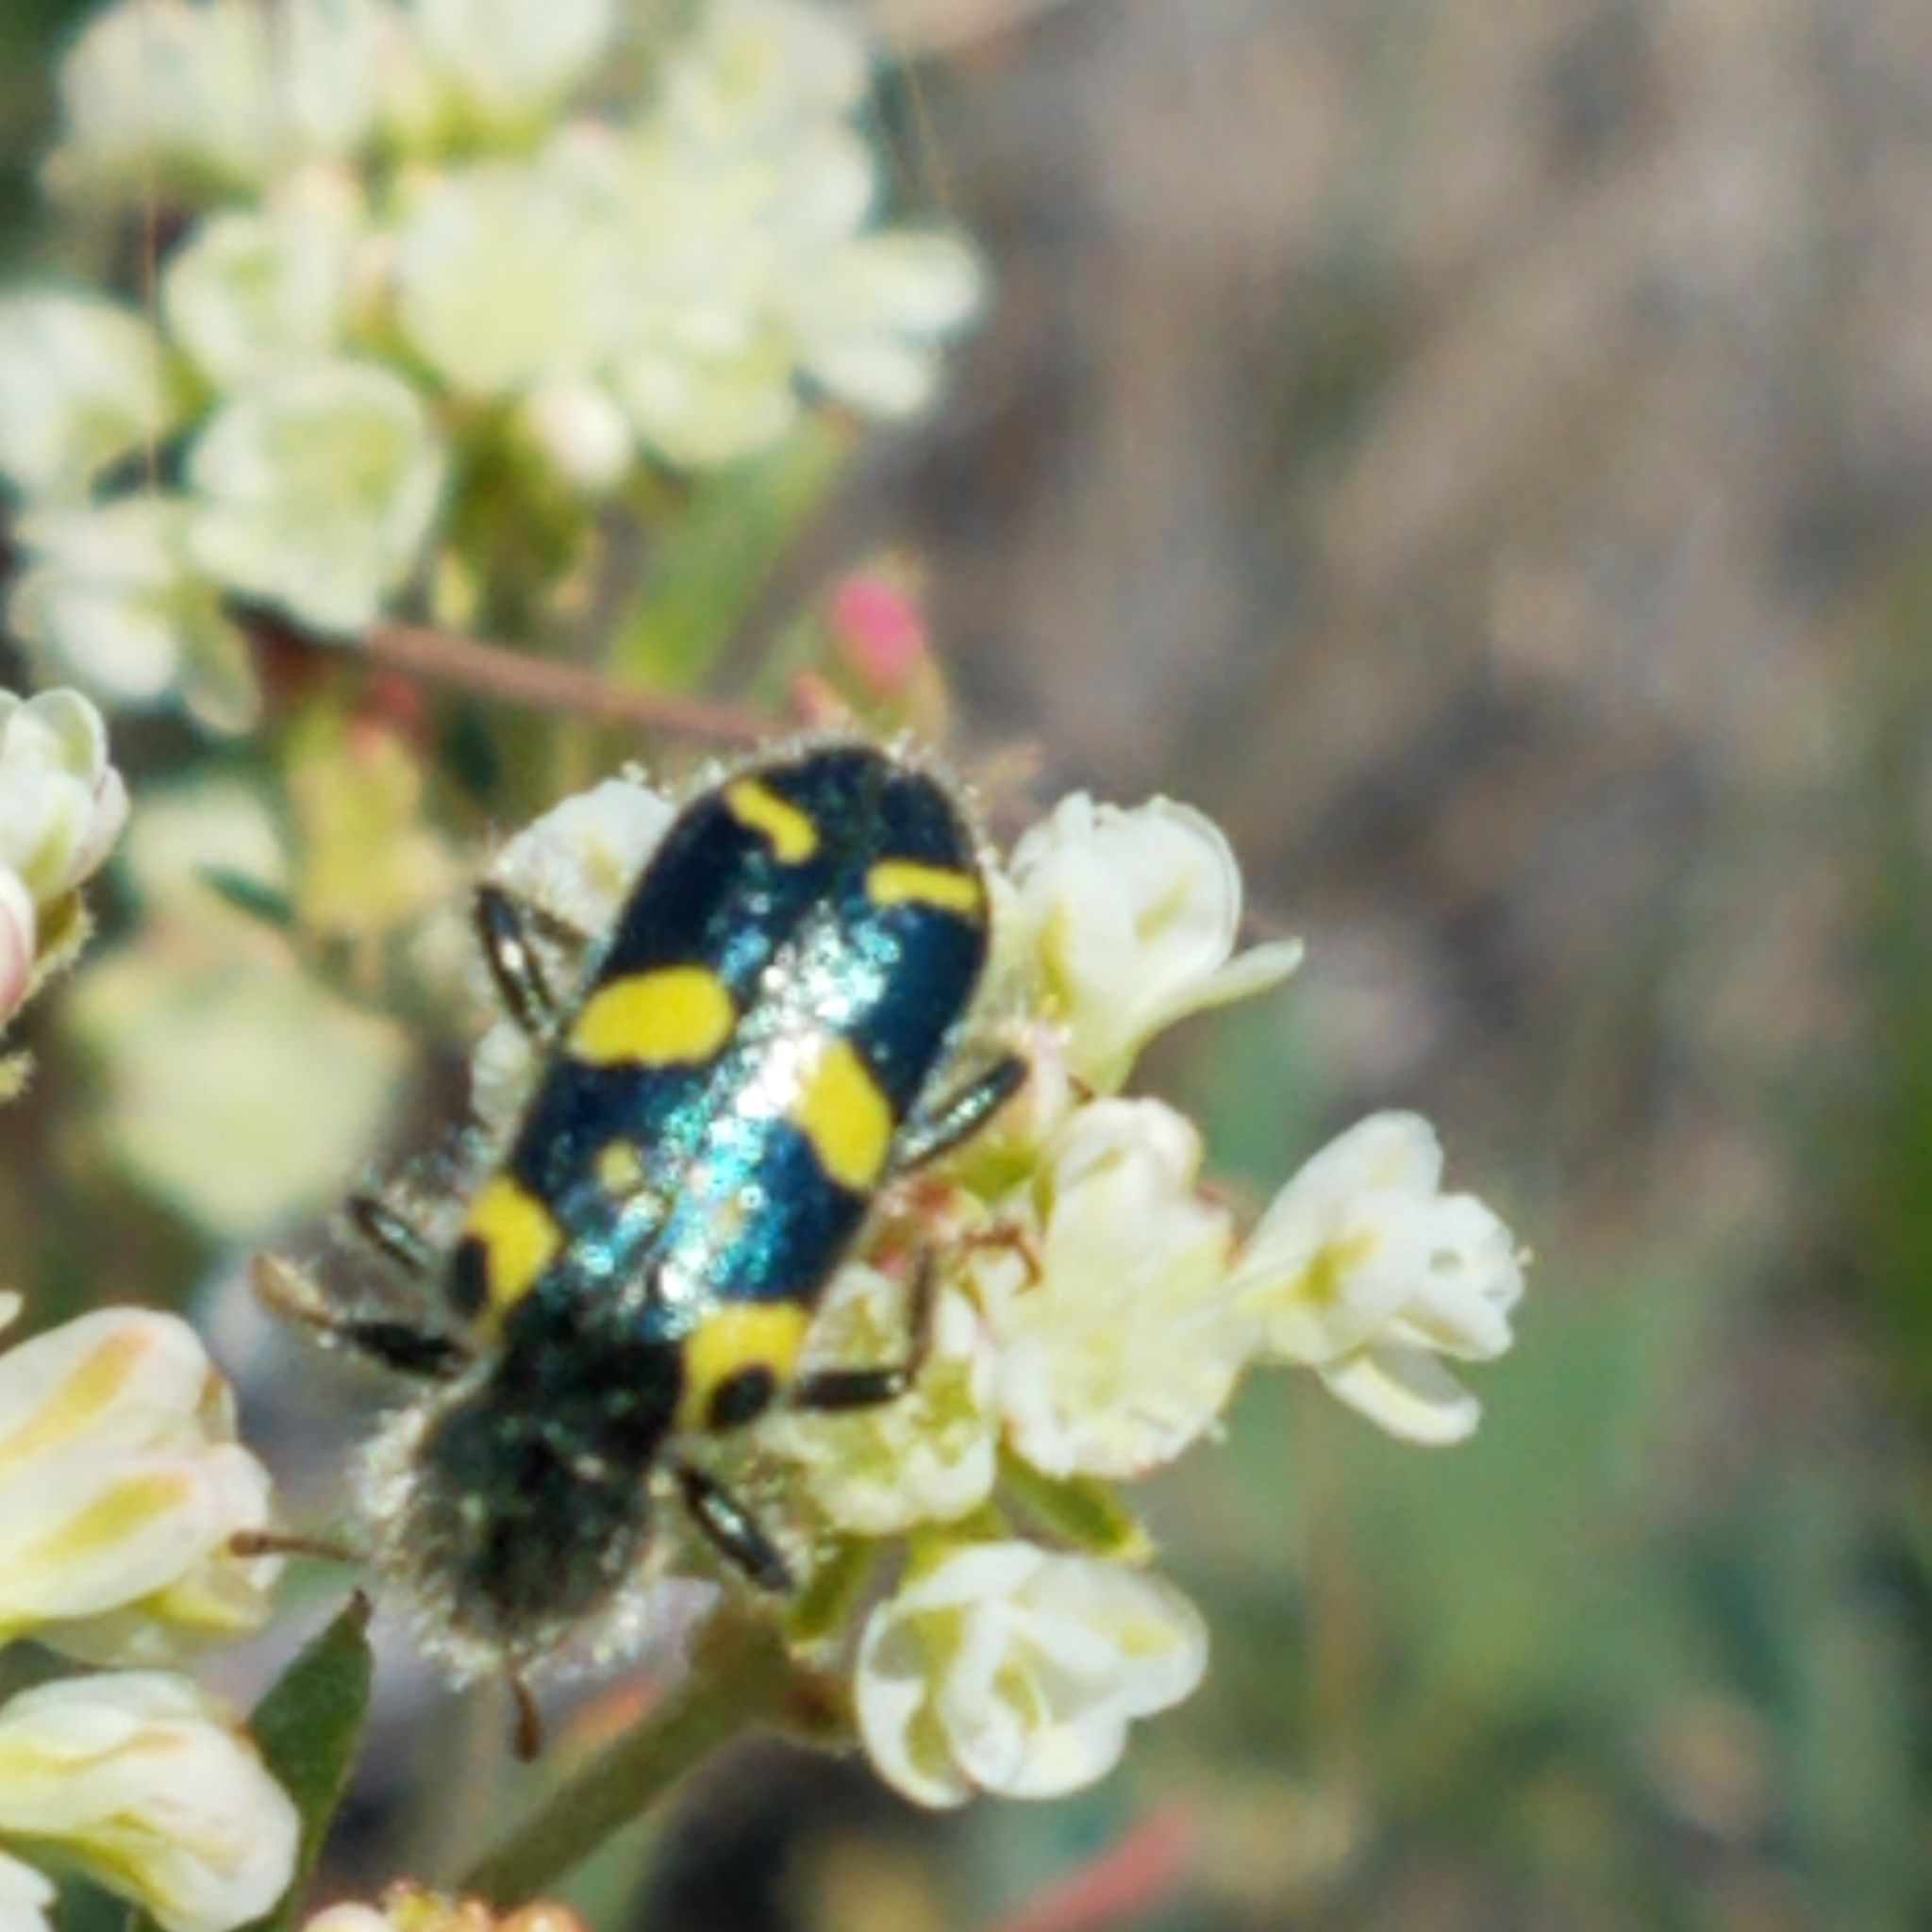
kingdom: Animalia
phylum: Arthropoda
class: Insecta
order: Coleoptera
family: Cleridae
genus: Trichodes
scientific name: Trichodes ornatus
